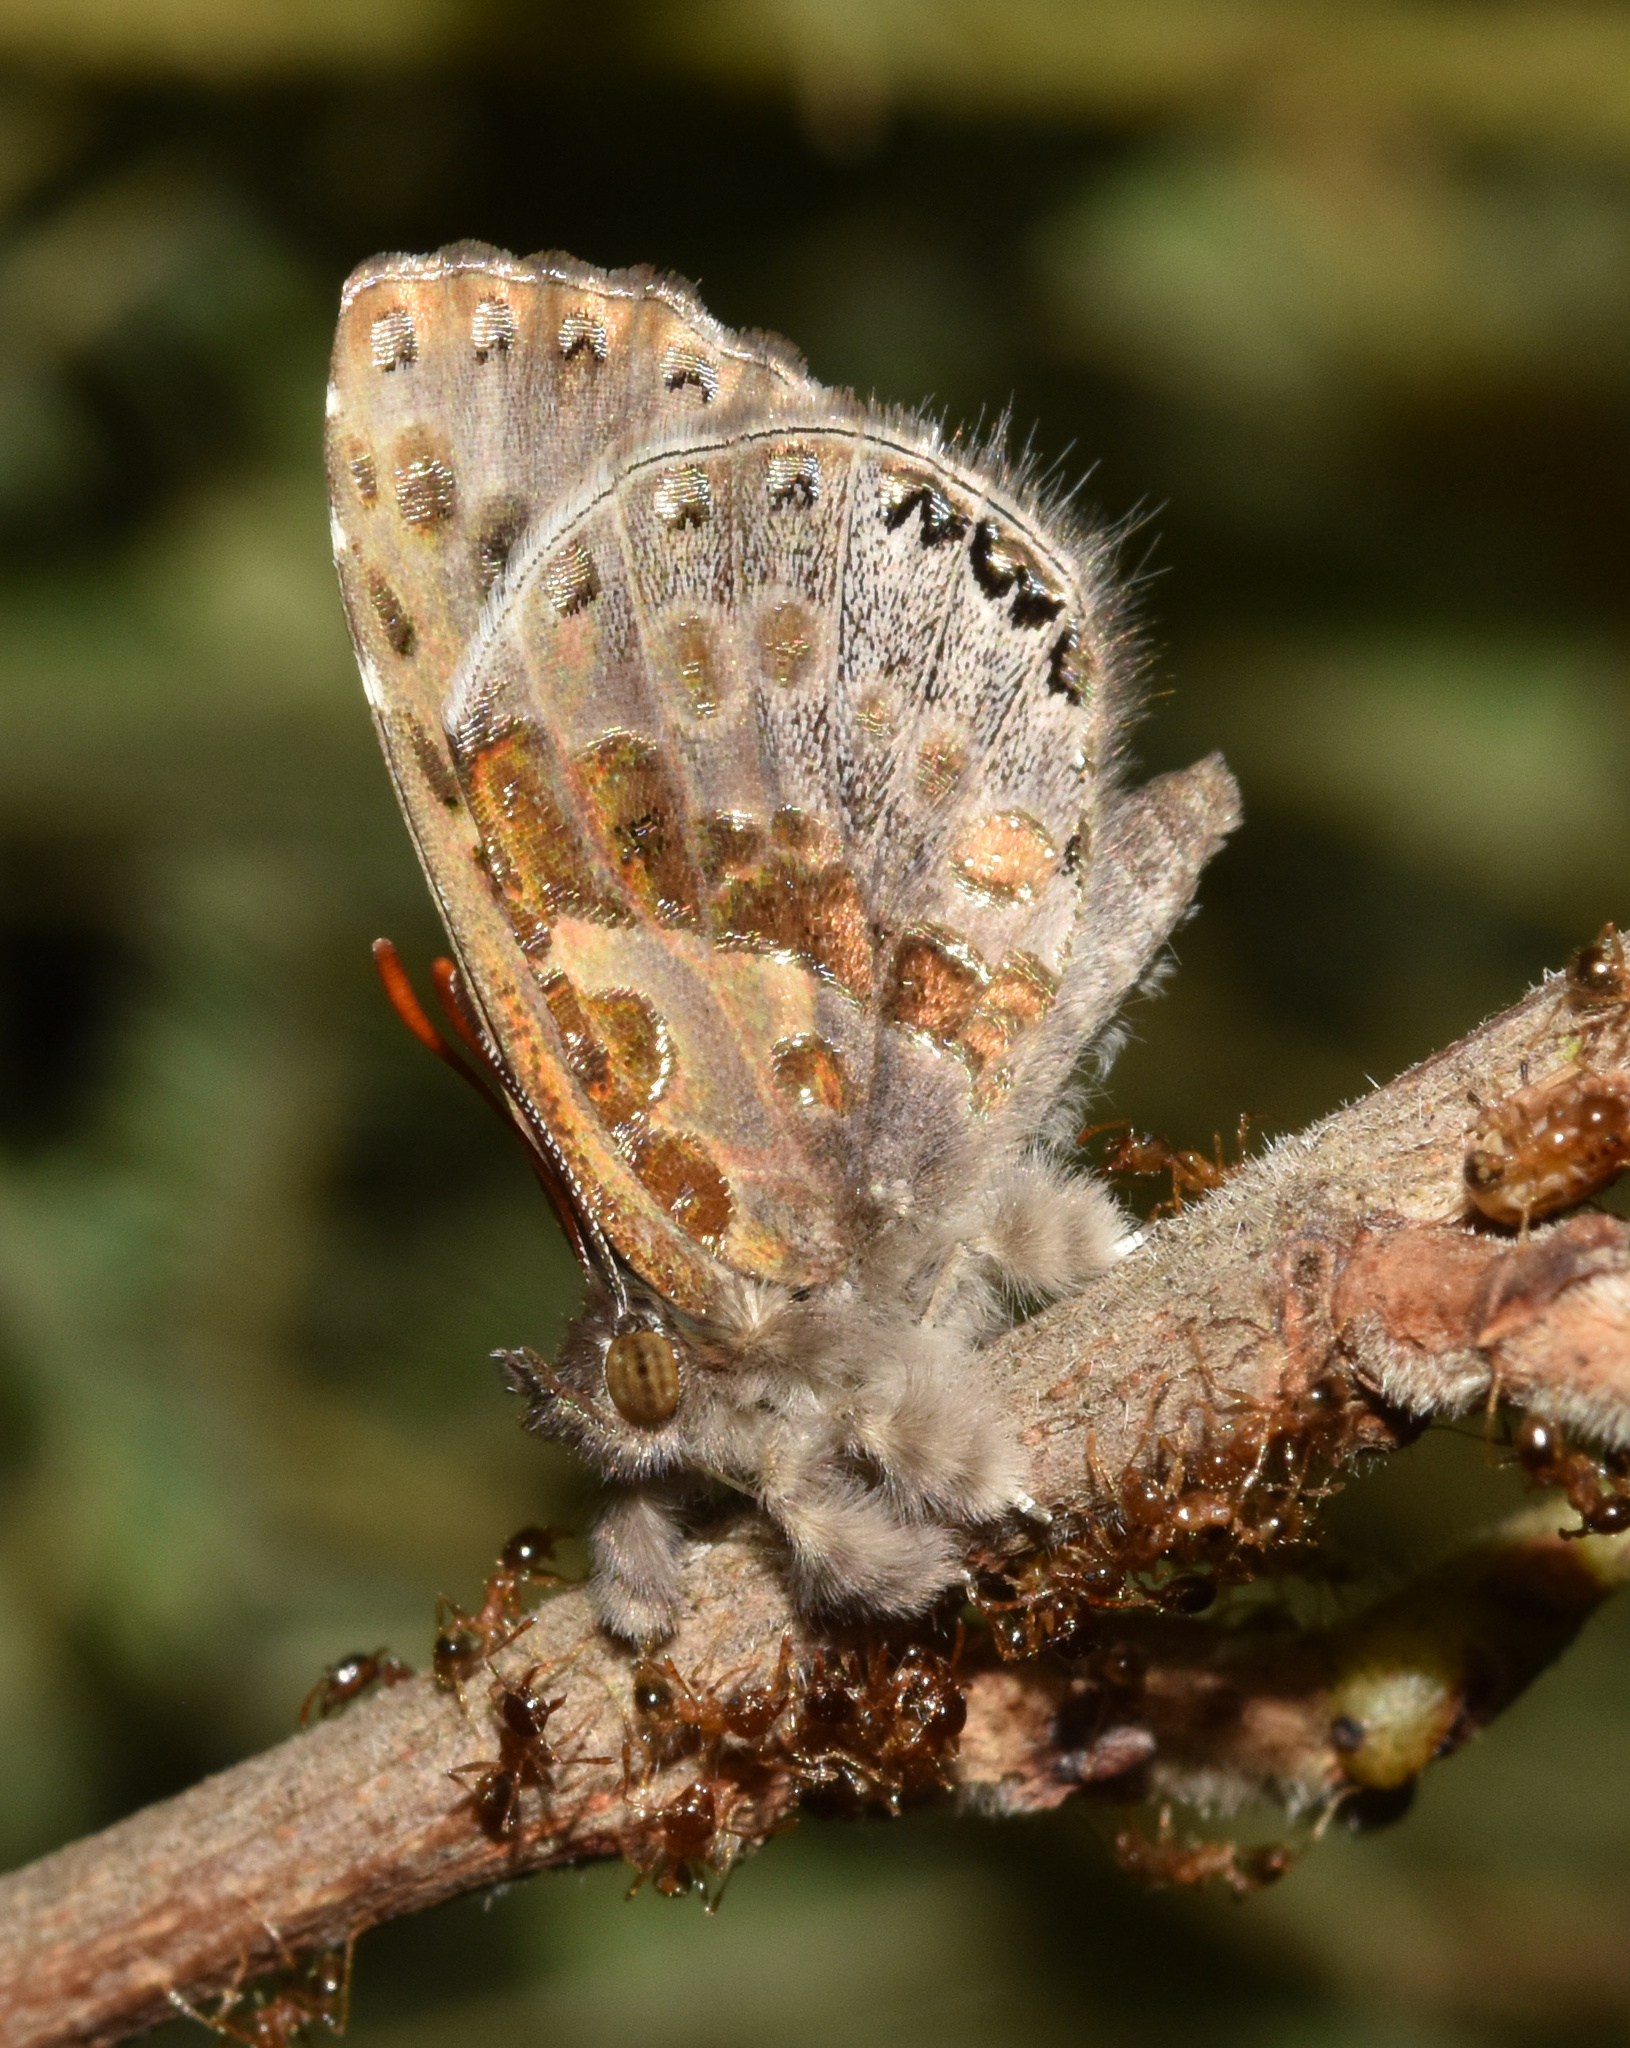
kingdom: Animalia
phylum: Arthropoda
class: Insecta
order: Lepidoptera
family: Lycaenidae
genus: Lachnocnema
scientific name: Lachnocnema
